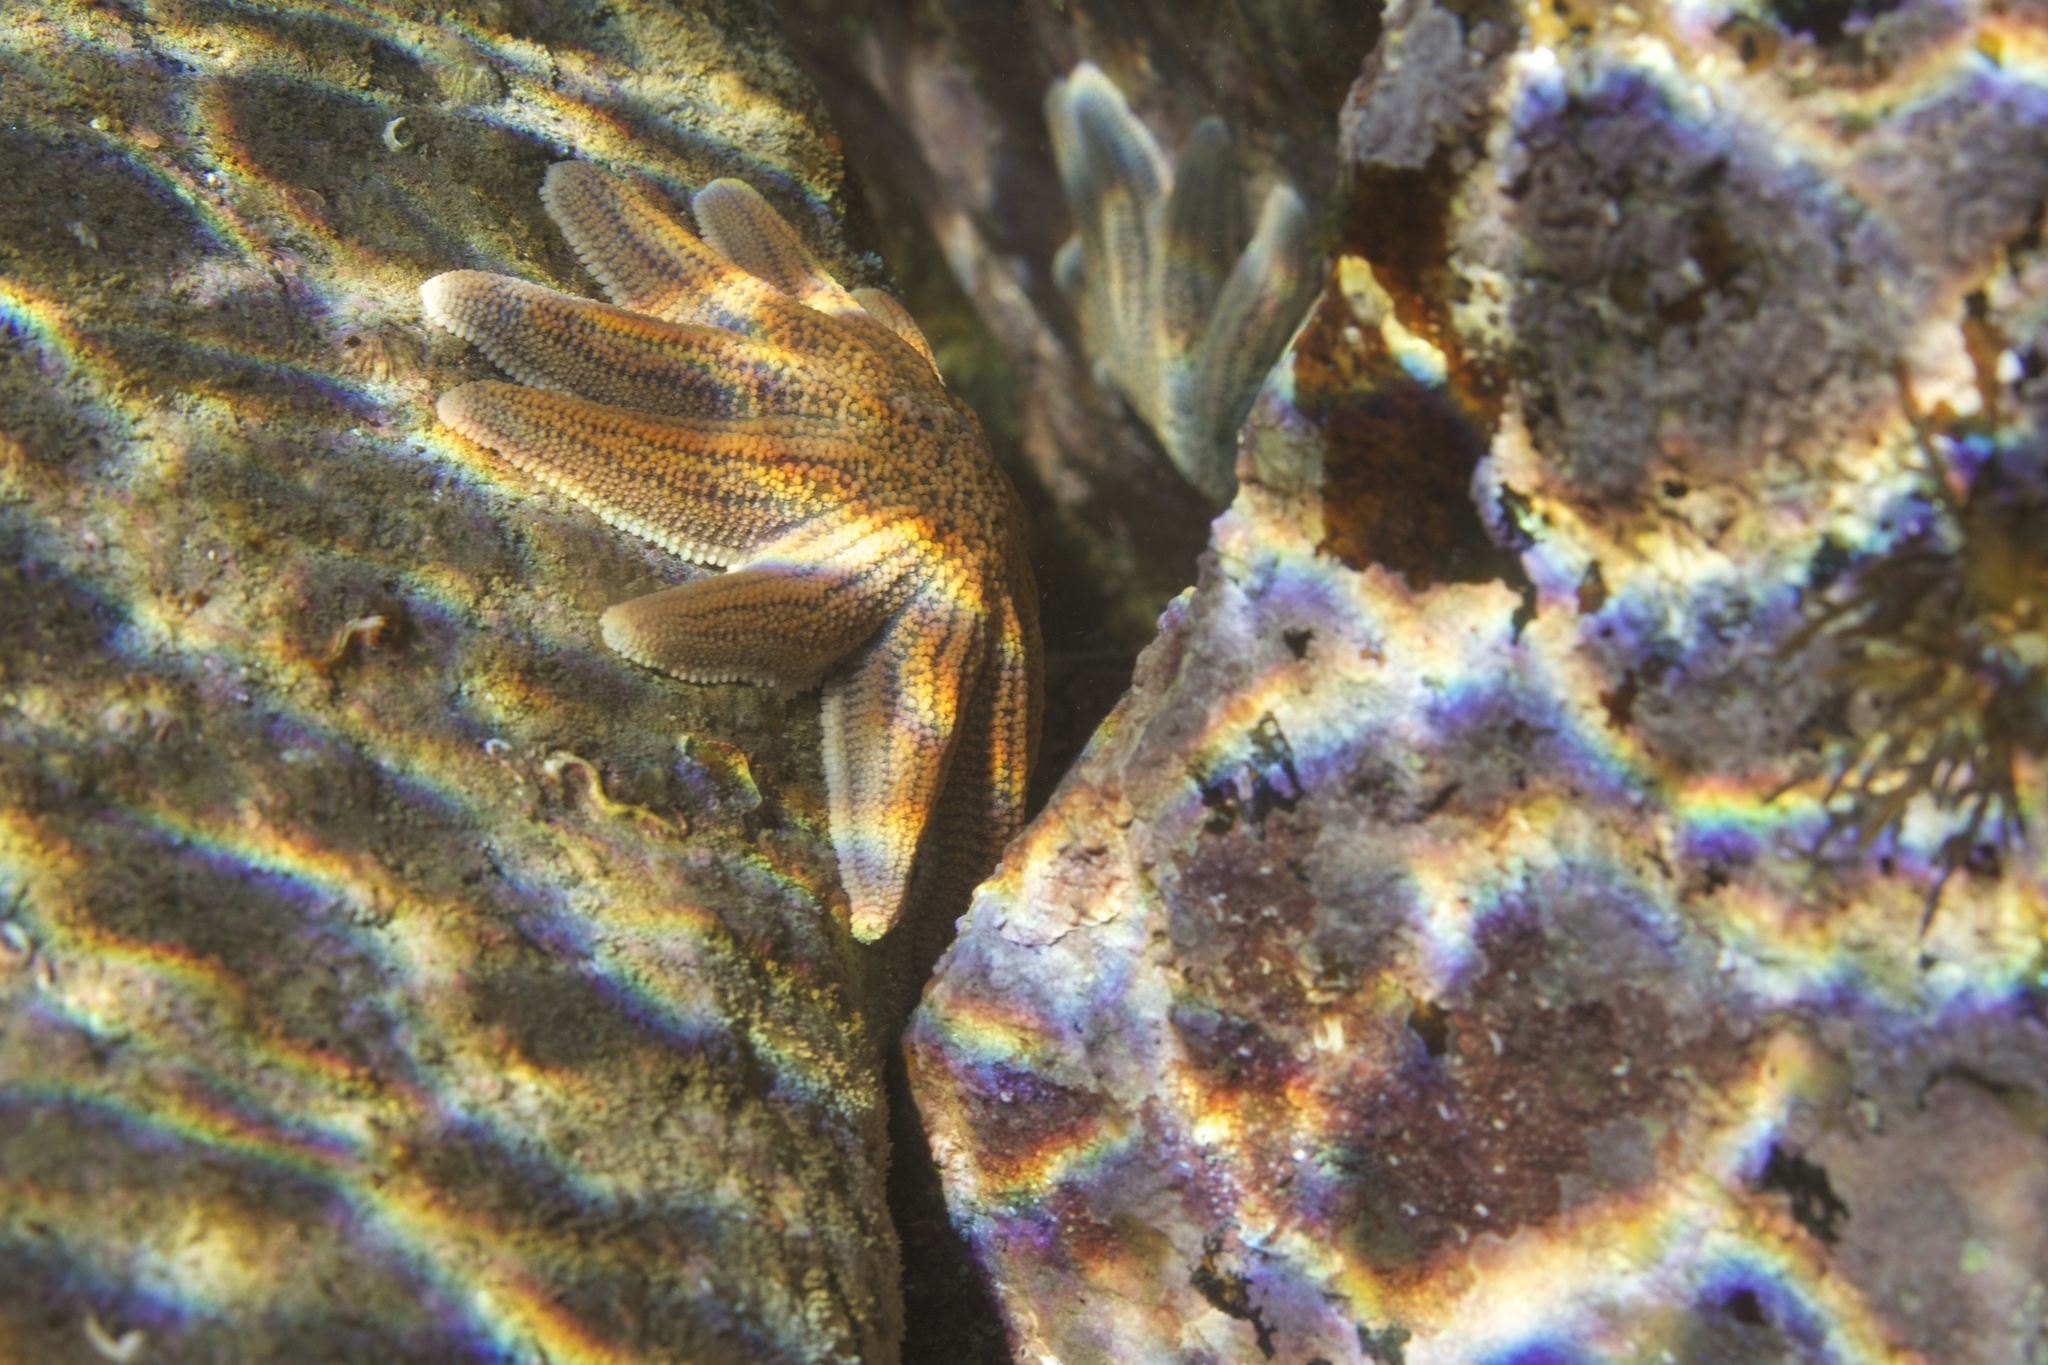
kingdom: Animalia
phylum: Echinodermata
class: Asteroidea
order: Forcipulatida
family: Stichasteridae
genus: Stichaster
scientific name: Stichaster australis
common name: Reef starfish
